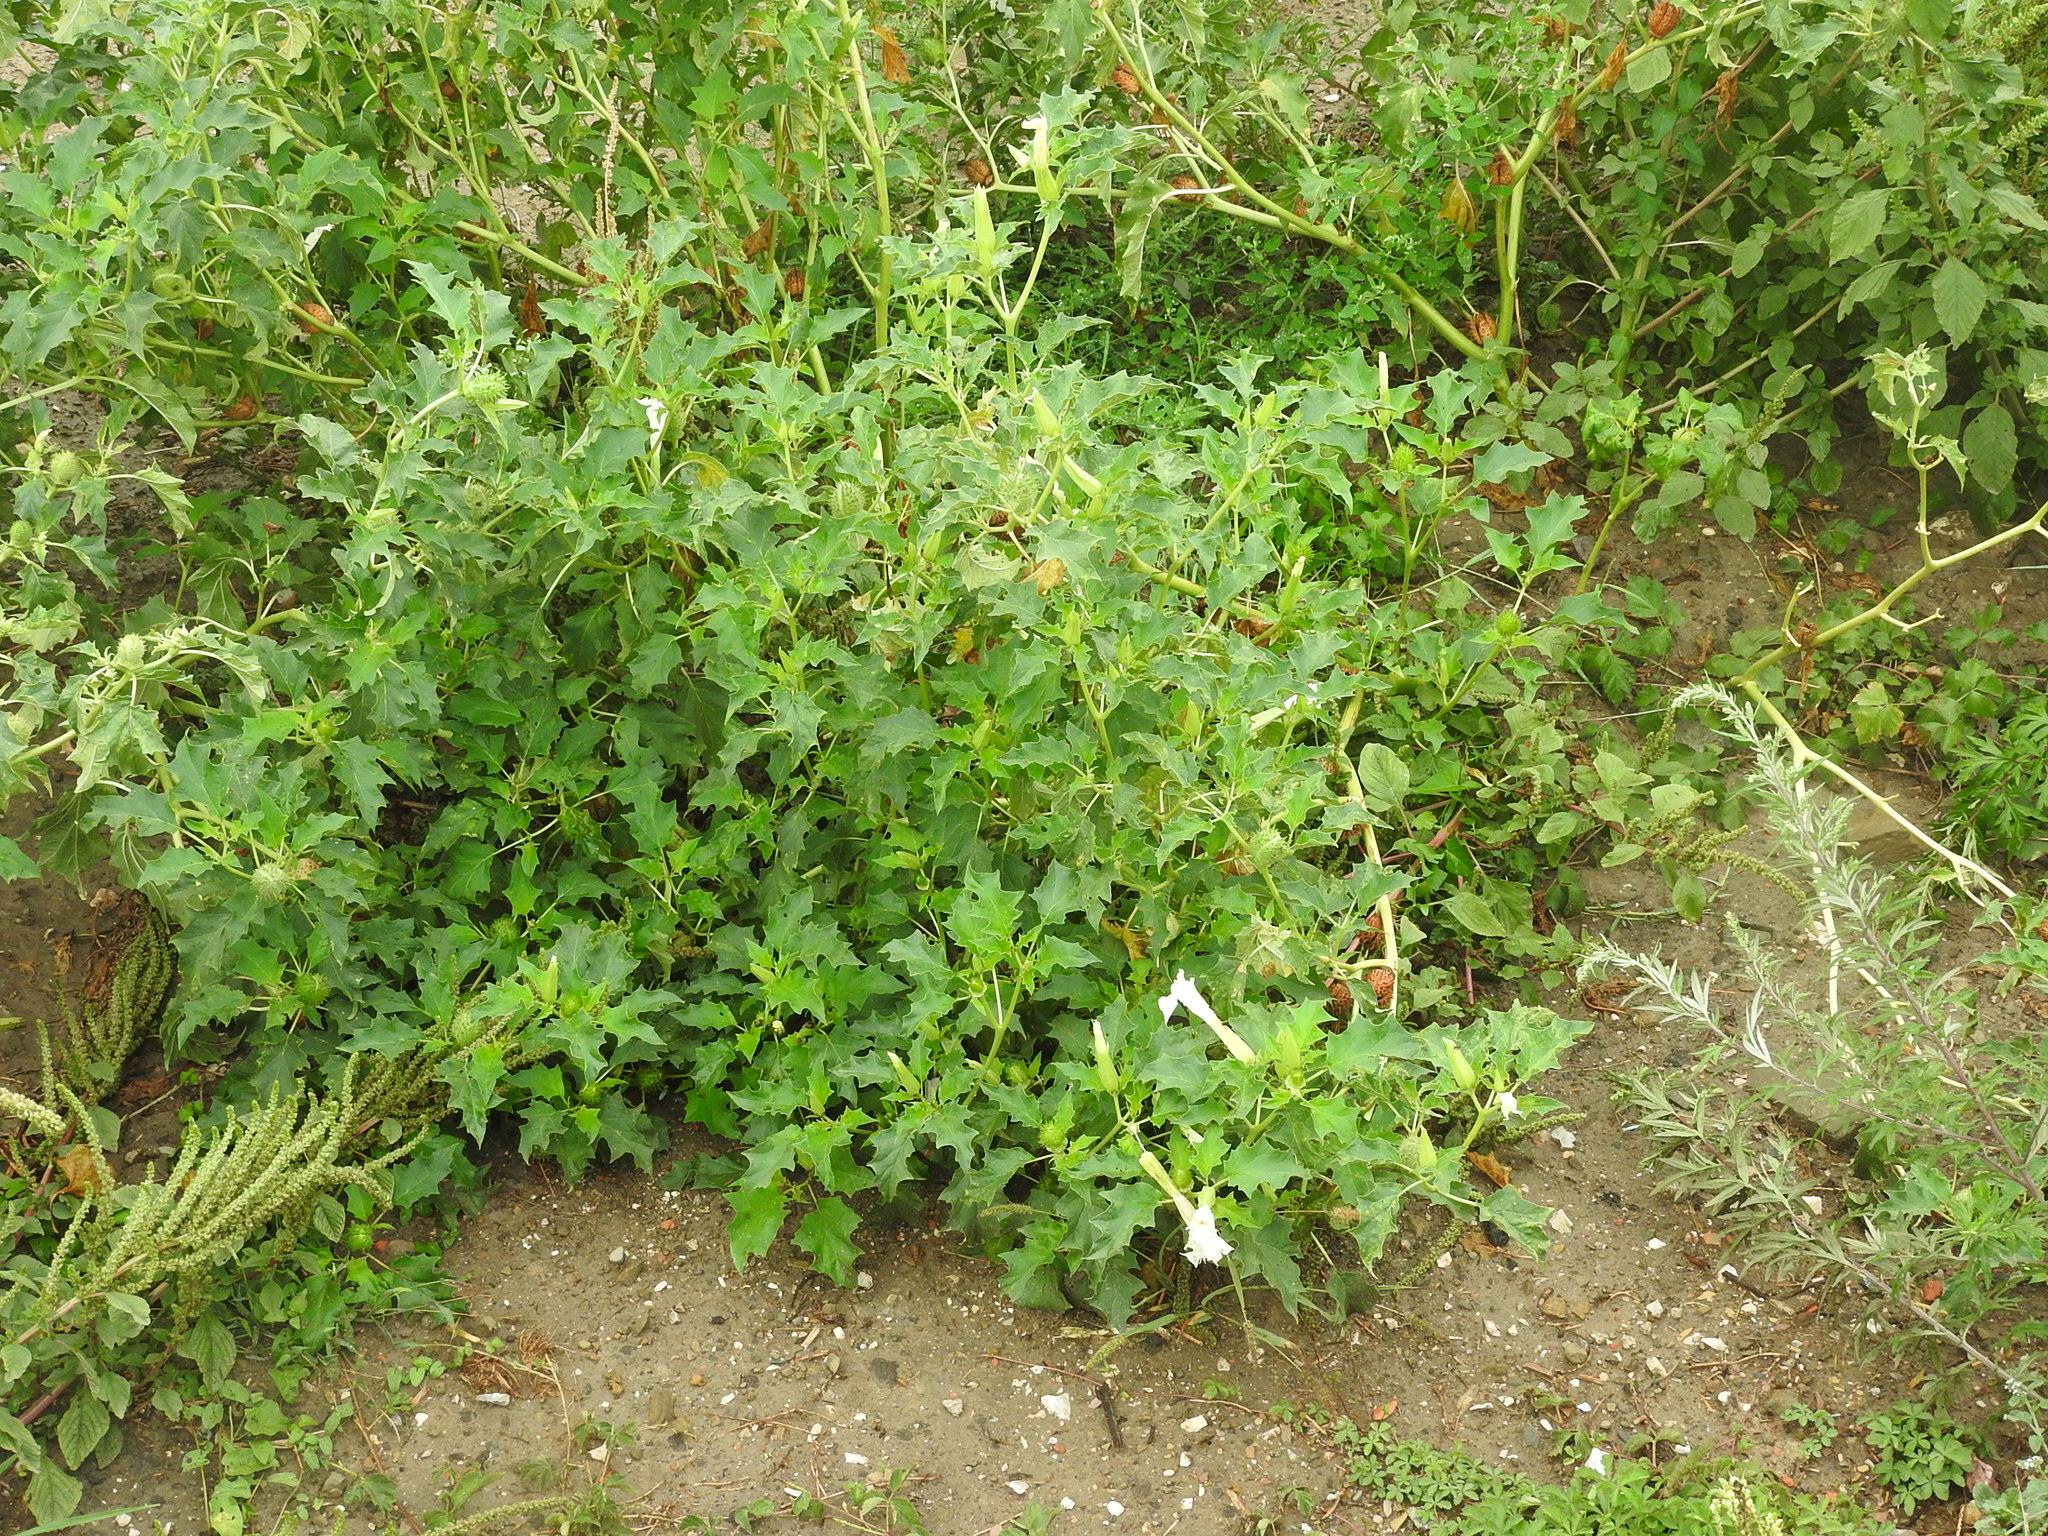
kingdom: Plantae
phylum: Tracheophyta
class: Magnoliopsida
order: Solanales
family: Solanaceae
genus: Datura
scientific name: Datura stramonium
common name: Thorn-apple
